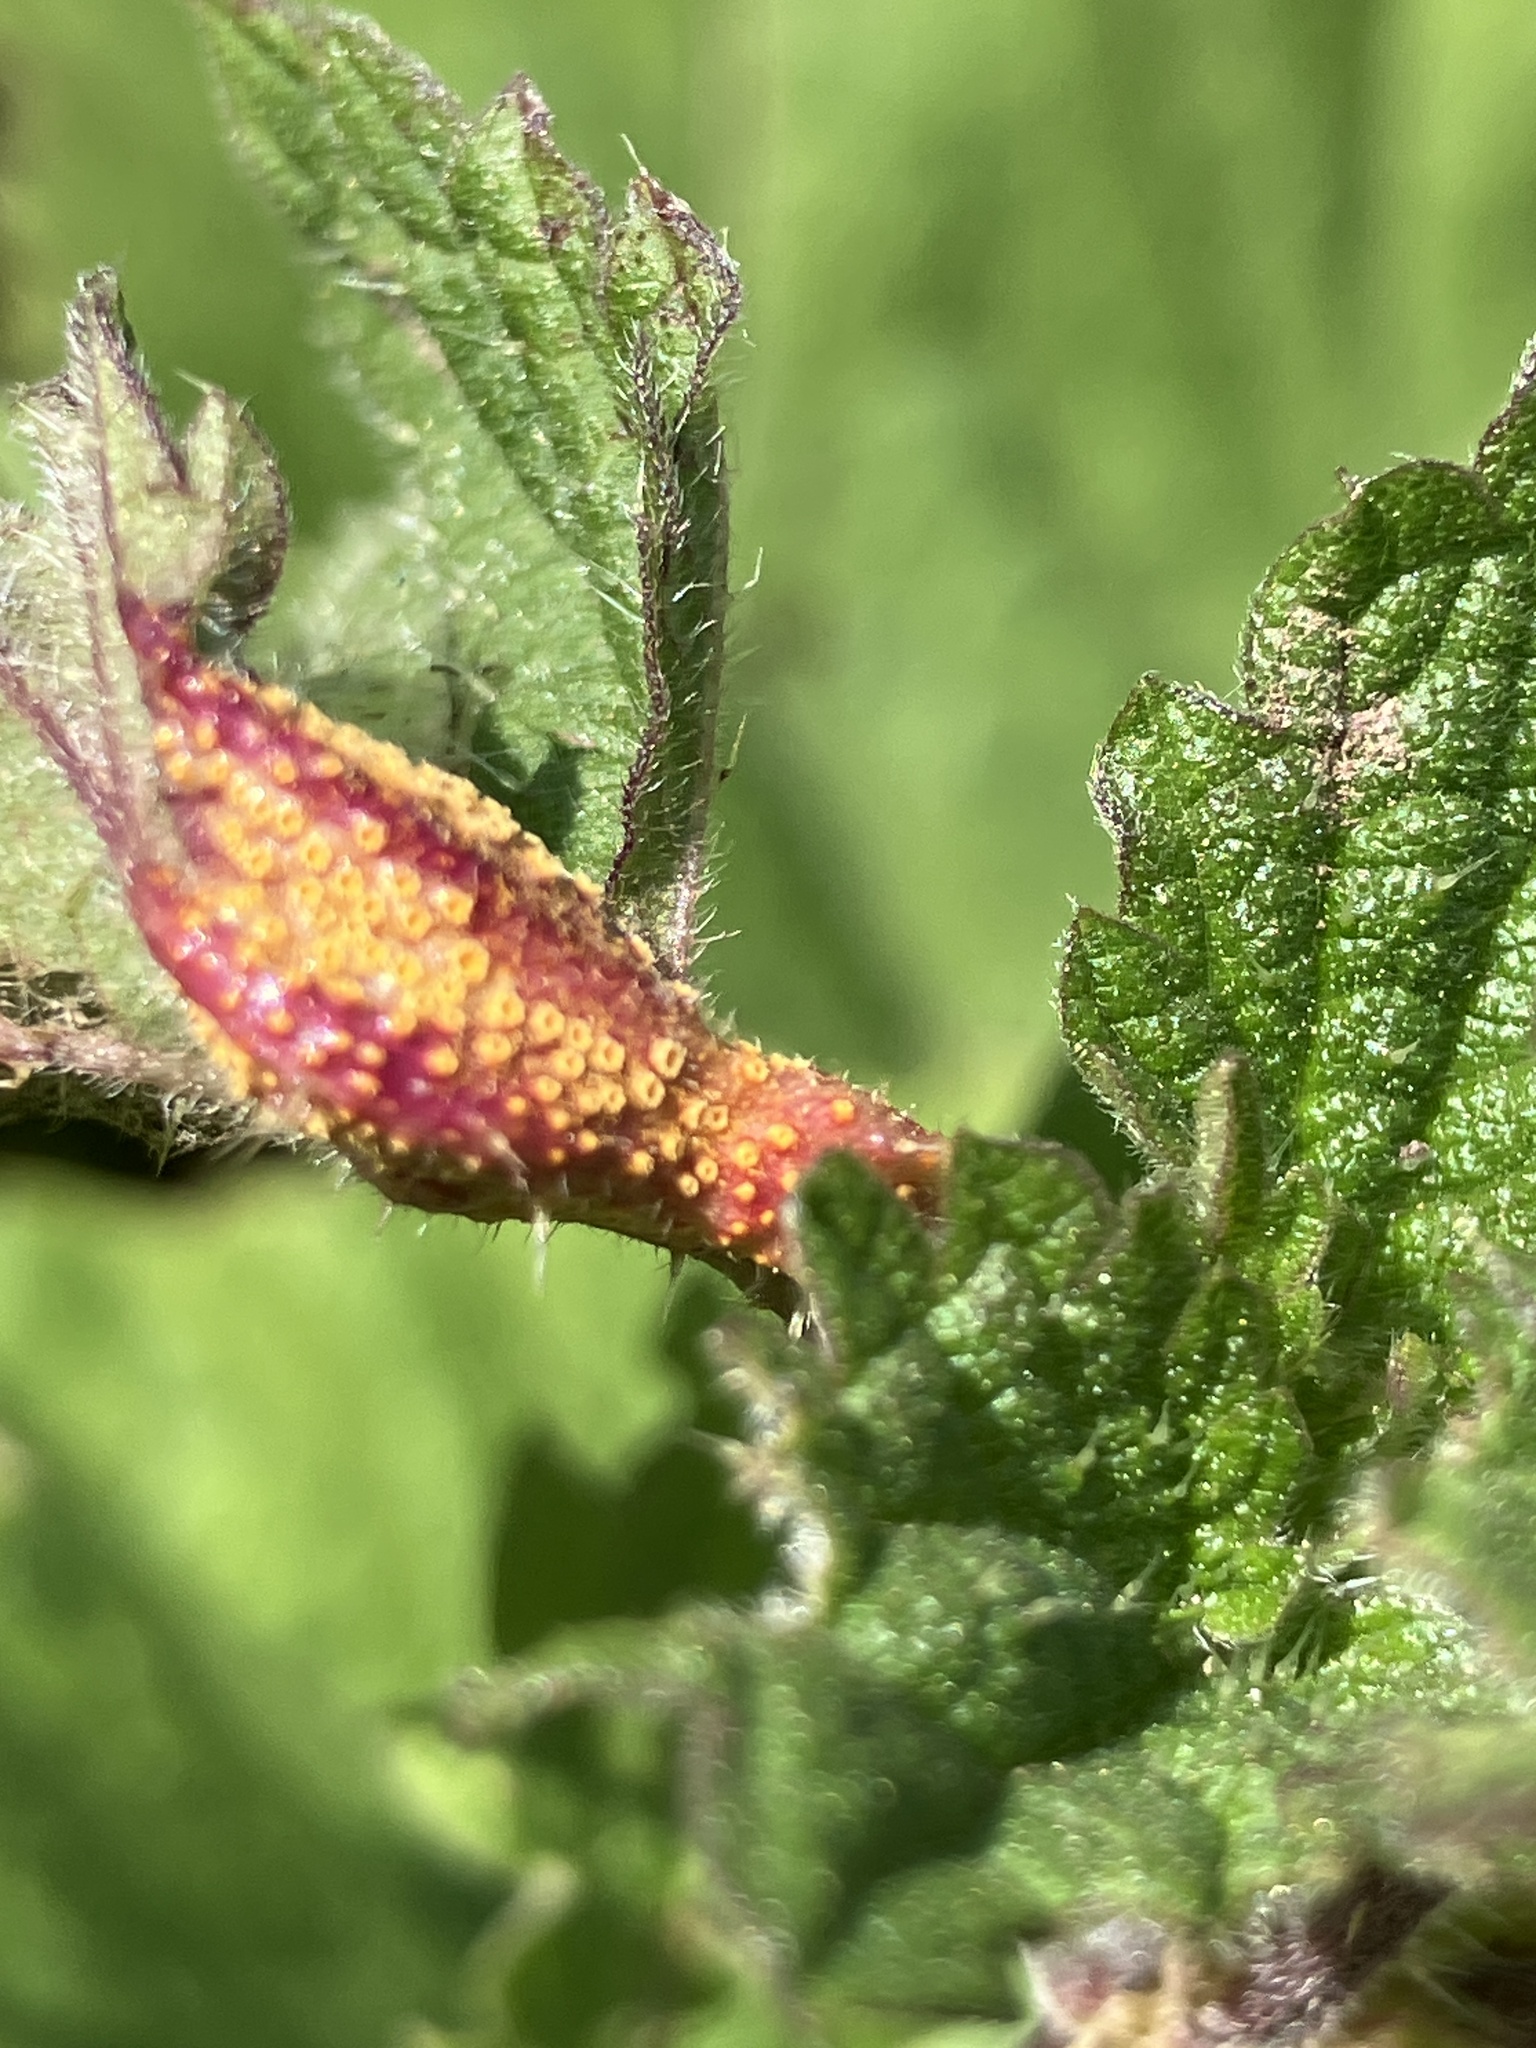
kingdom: Fungi
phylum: Basidiomycota
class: Pucciniomycetes
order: Pucciniales
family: Pucciniaceae
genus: Puccinia
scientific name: Puccinia urticata
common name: Nettle clustercup rust fungus
